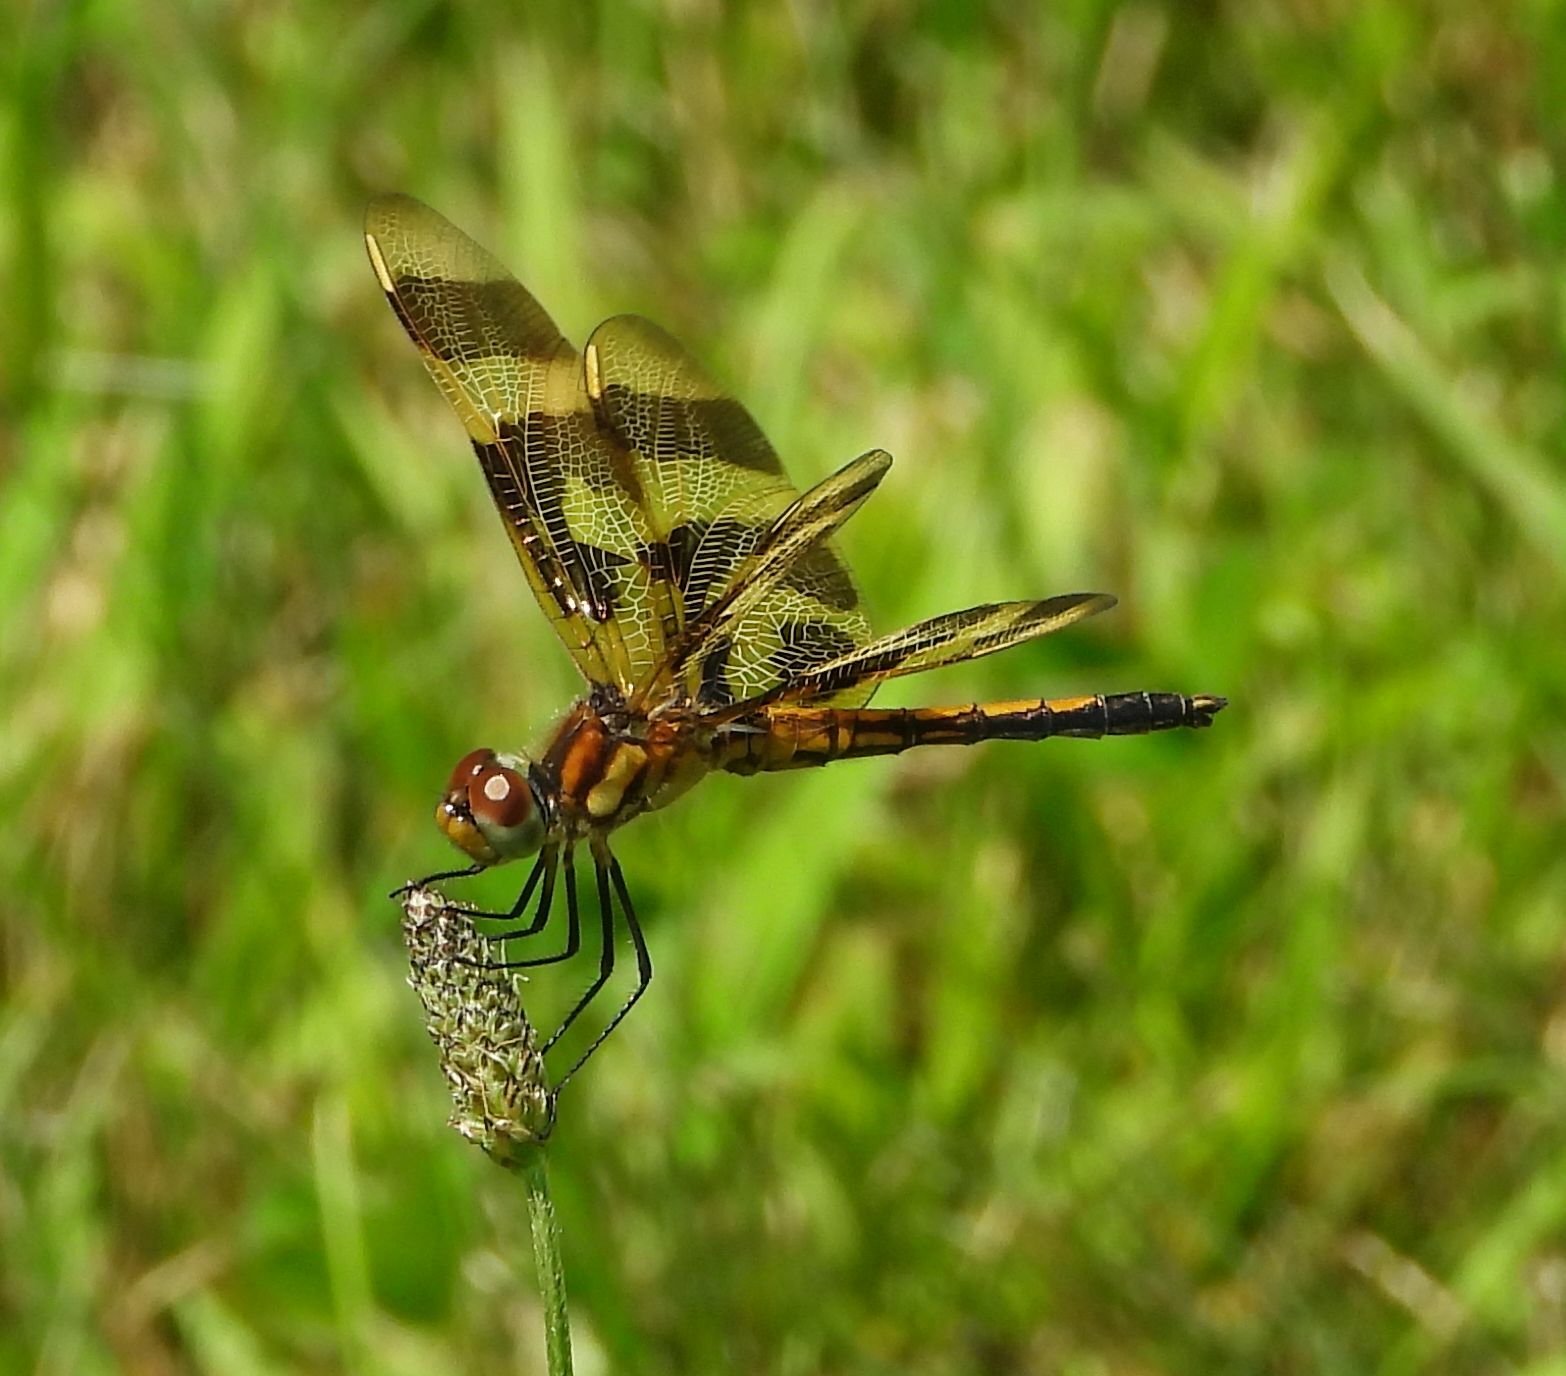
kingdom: Animalia
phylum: Arthropoda
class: Insecta
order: Odonata
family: Libellulidae
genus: Celithemis
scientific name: Celithemis eponina
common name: Halloween pennant
